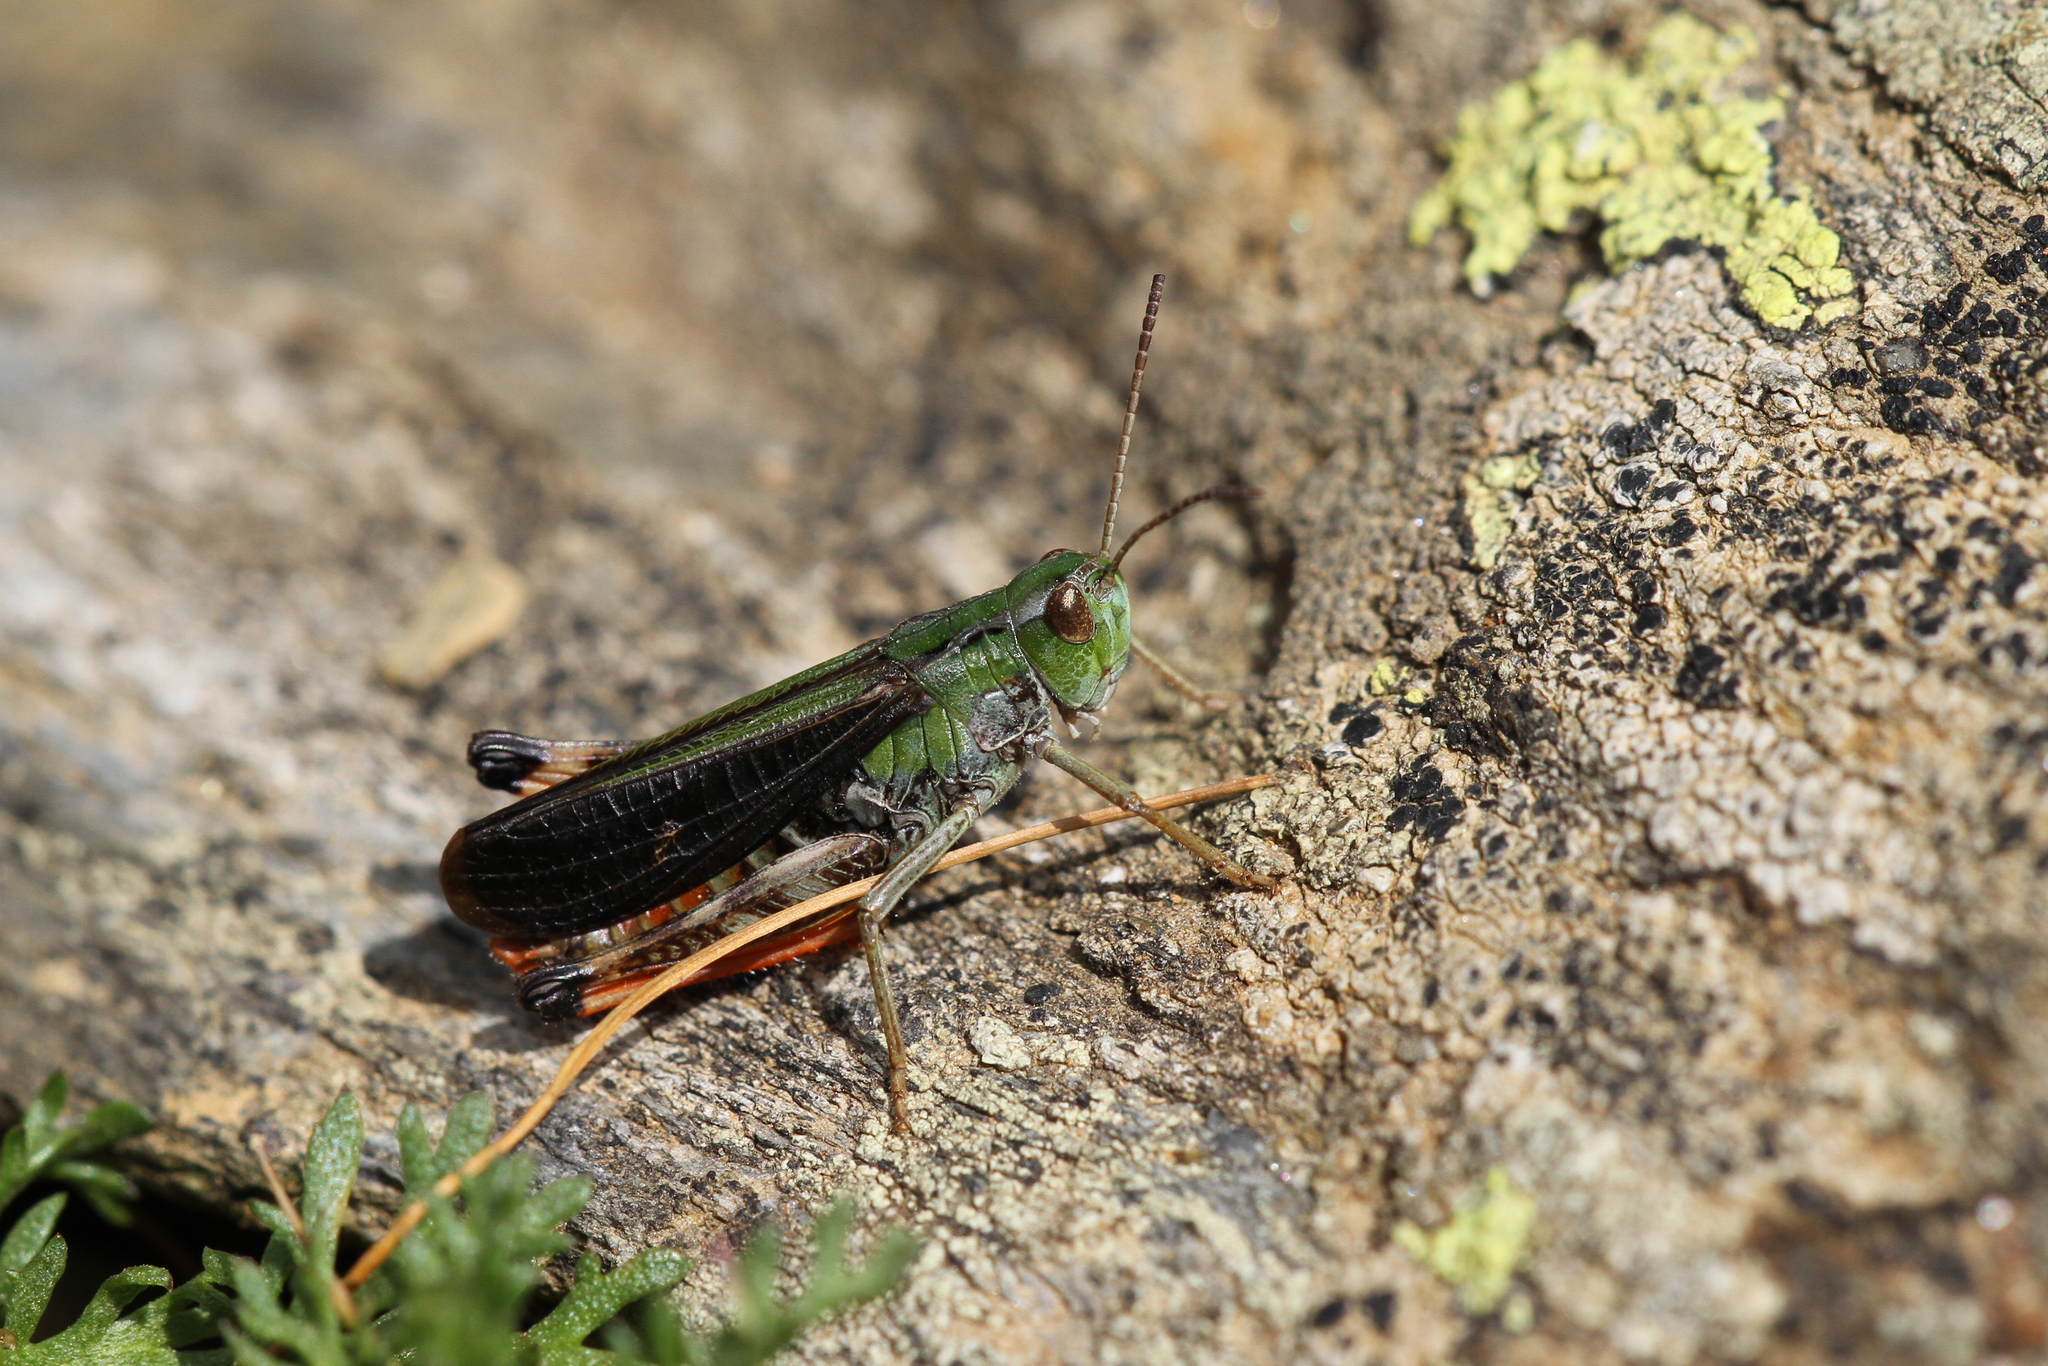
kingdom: Animalia
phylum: Arthropoda
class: Insecta
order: Orthoptera
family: Acrididae
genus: Stenobothrus
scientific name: Stenobothrus rubicundulus
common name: Wing-buzzing grasshopper
